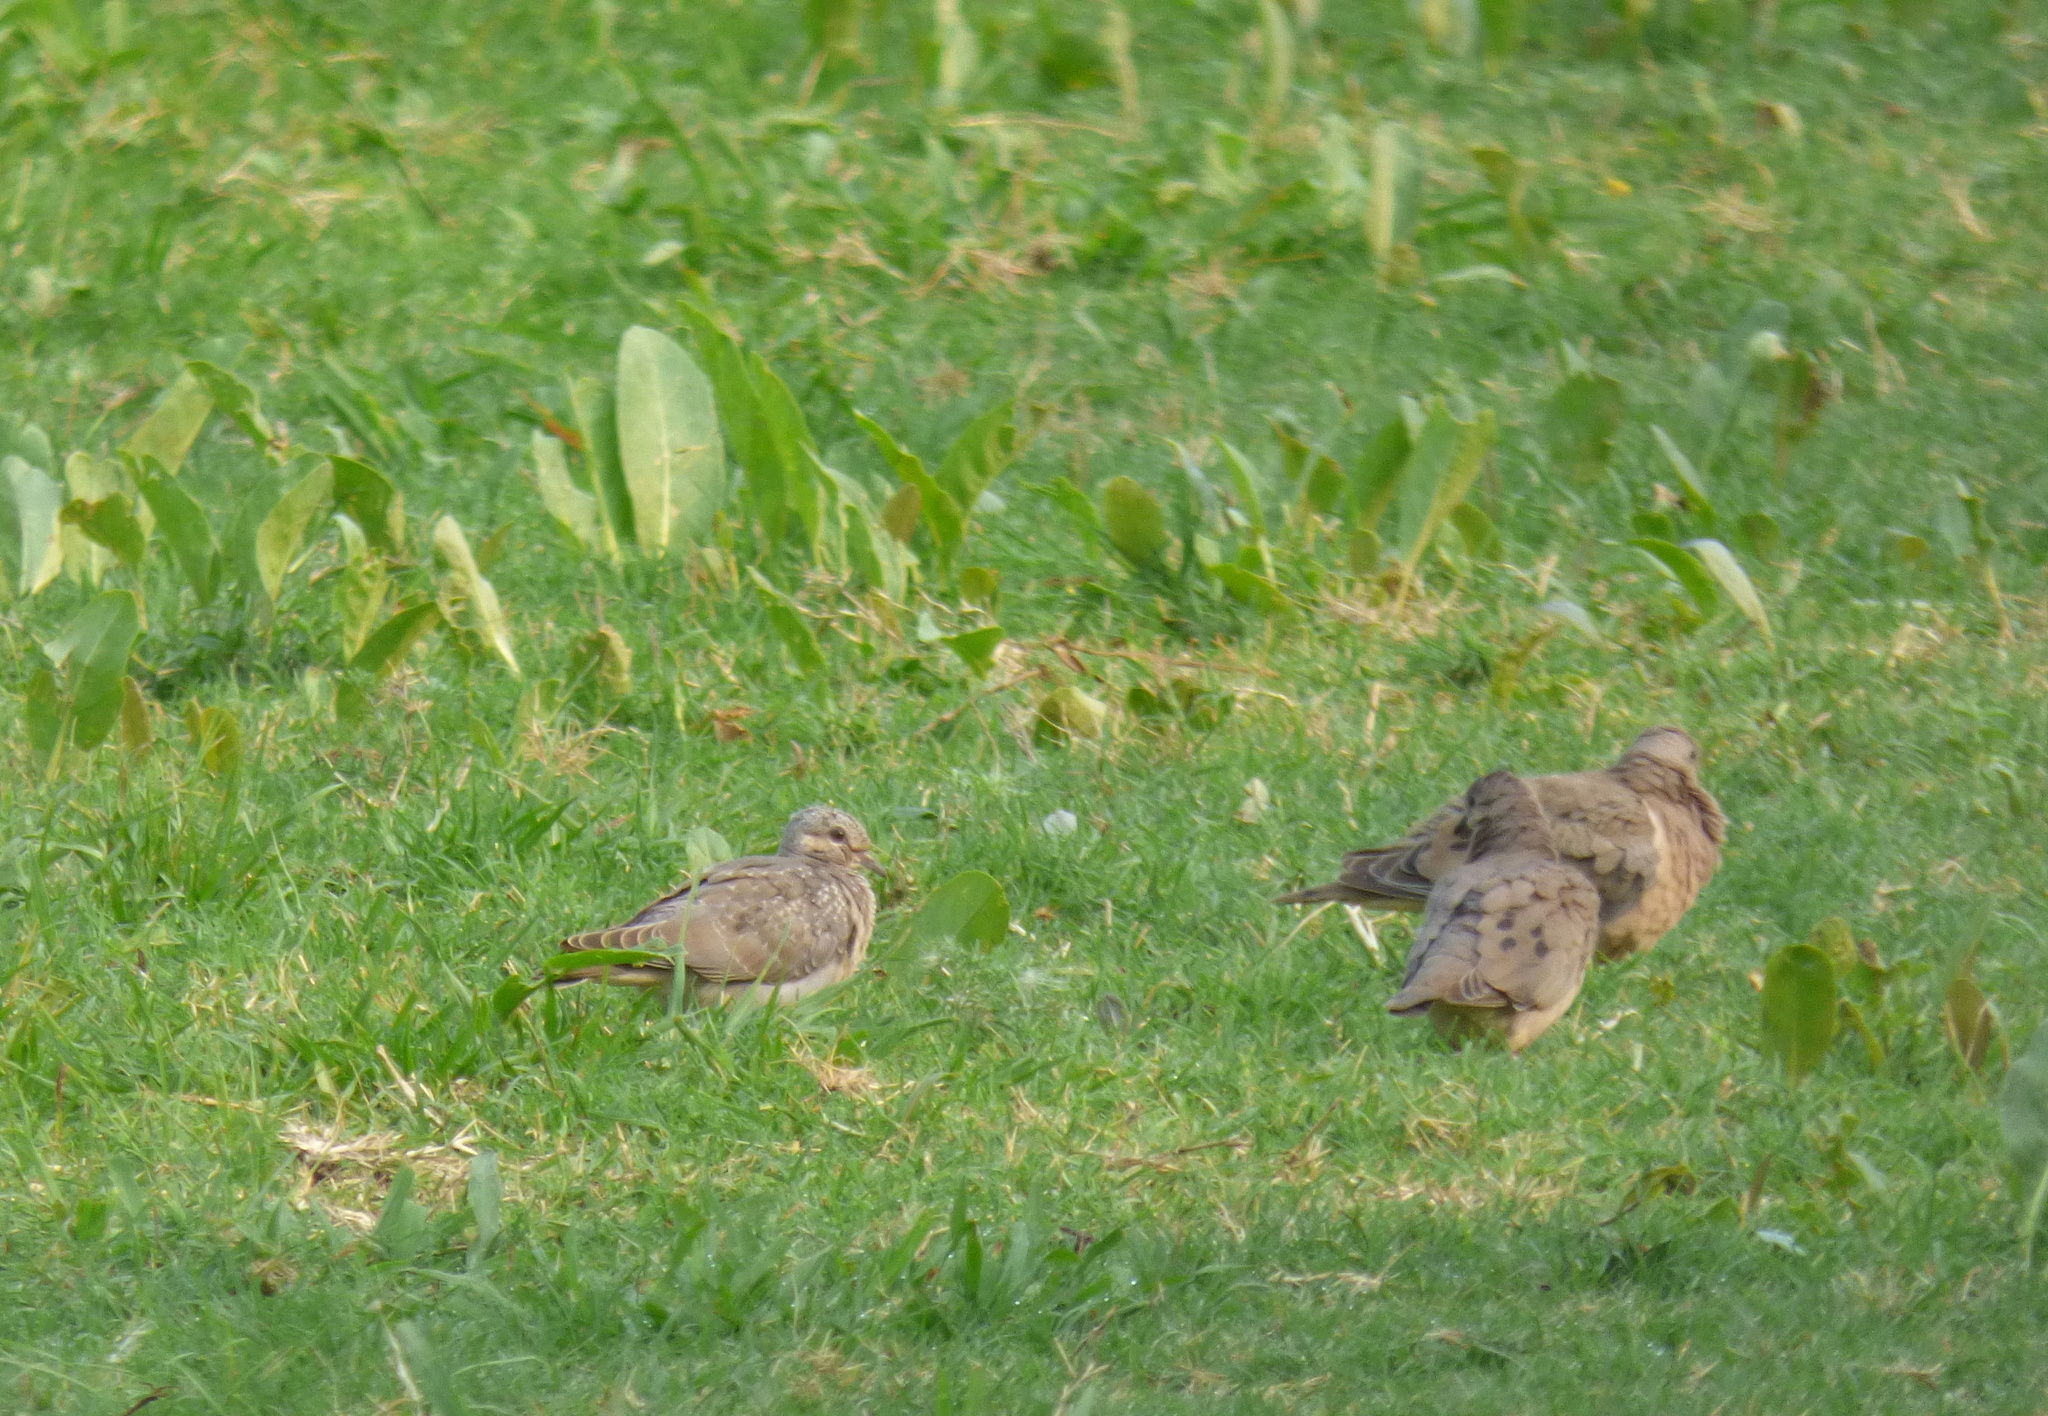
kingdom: Animalia
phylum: Chordata
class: Aves
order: Columbiformes
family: Columbidae
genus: Zenaida
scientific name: Zenaida auriculata
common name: Eared dove
